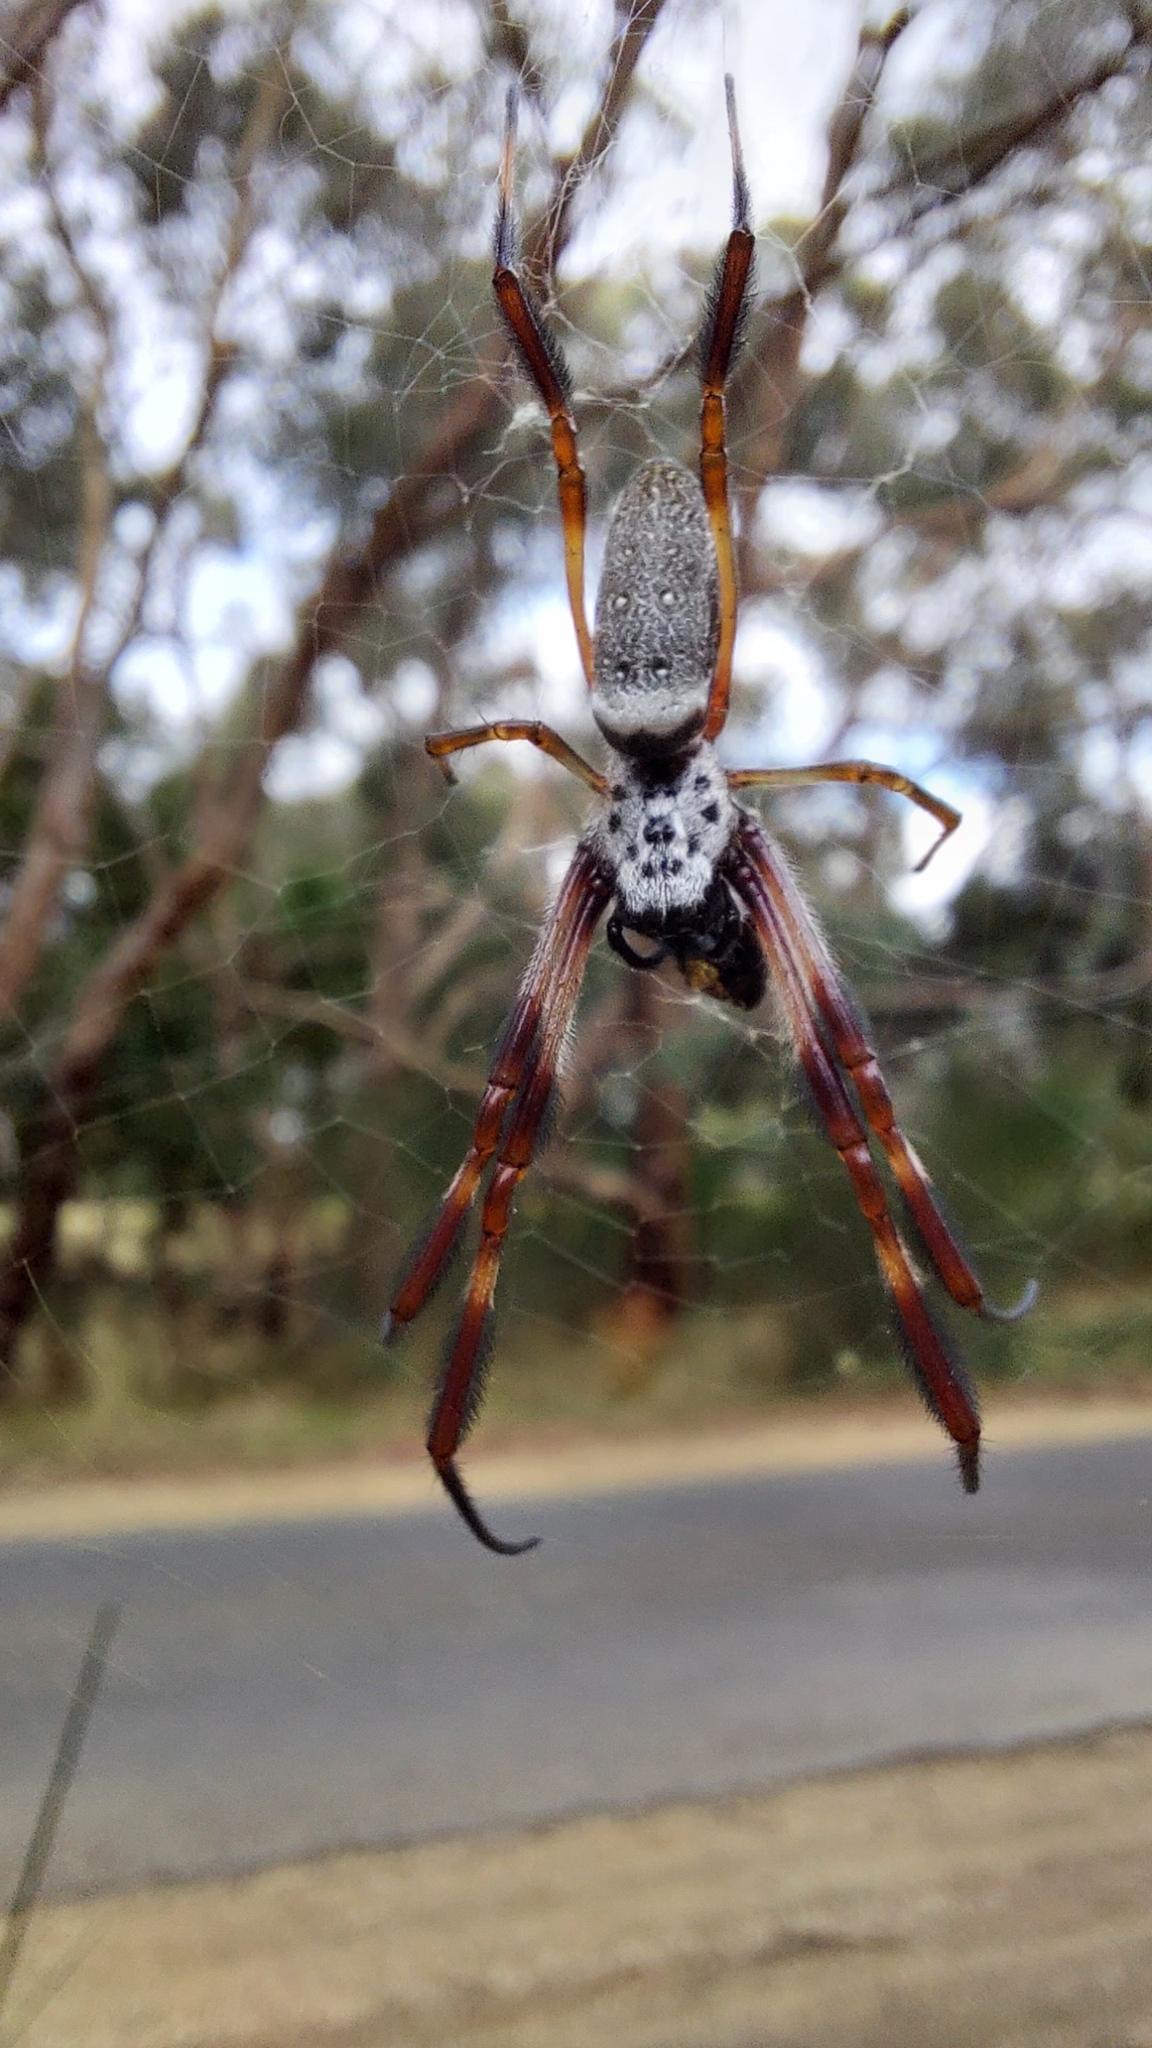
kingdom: Animalia
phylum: Arthropoda
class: Arachnida
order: Araneae
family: Araneidae
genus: Trichonephila
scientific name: Trichonephila edulis
